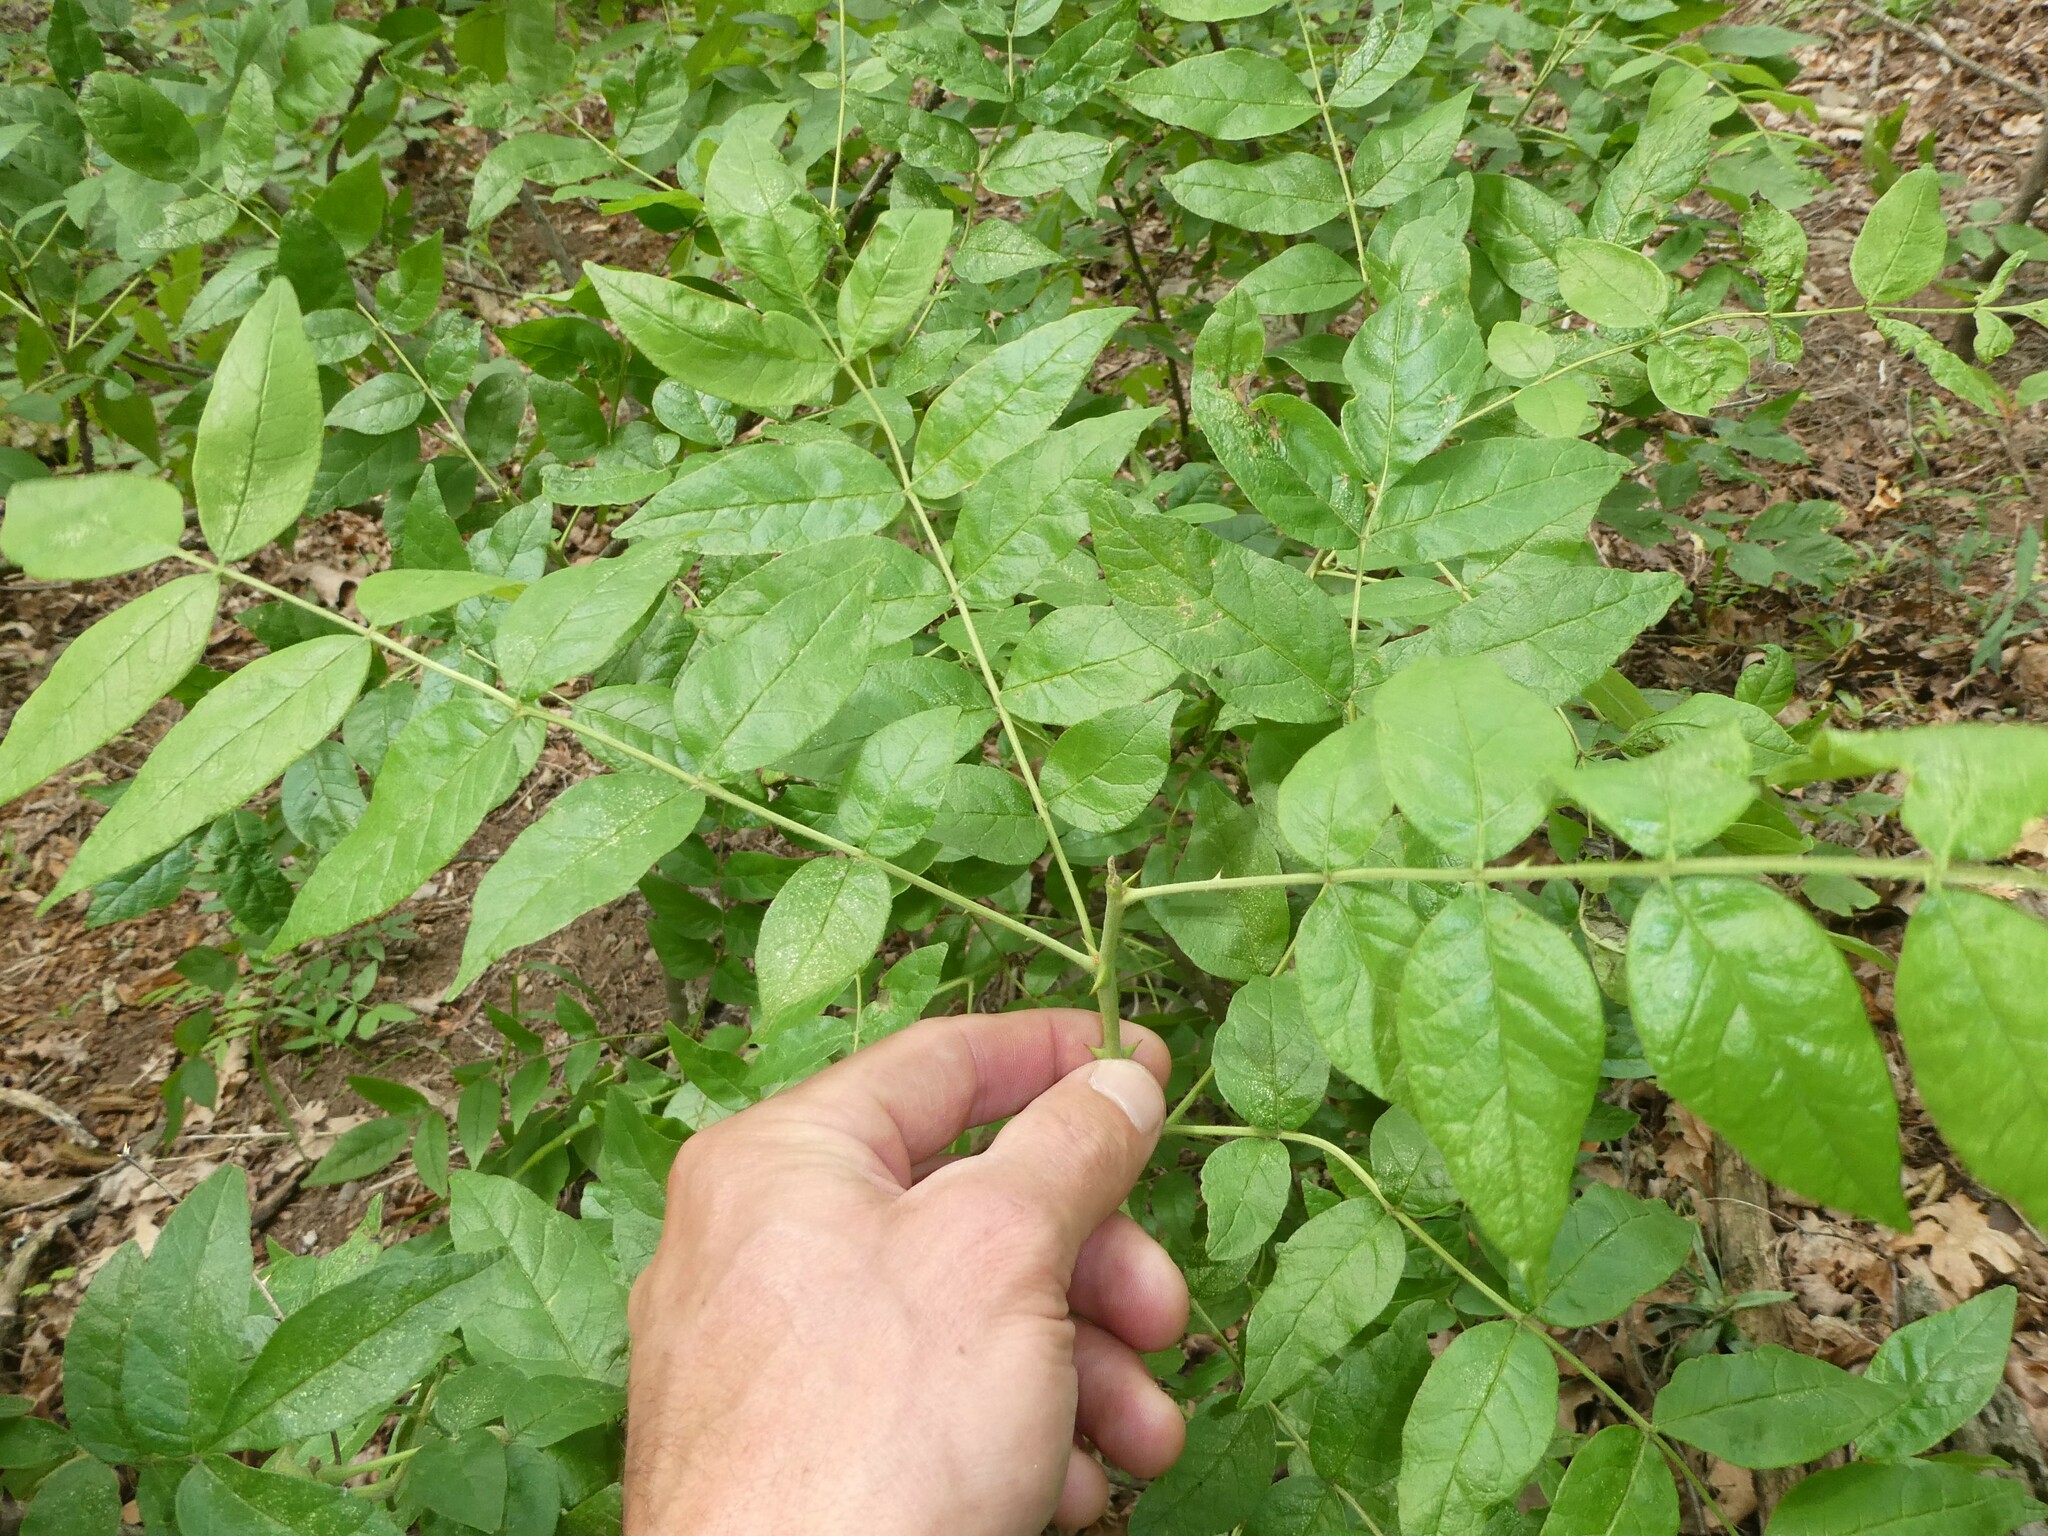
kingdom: Plantae
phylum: Tracheophyta
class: Magnoliopsida
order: Sapindales
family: Rutaceae
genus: Zanthoxylum
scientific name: Zanthoxylum americanum
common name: Northern prickly-ash
